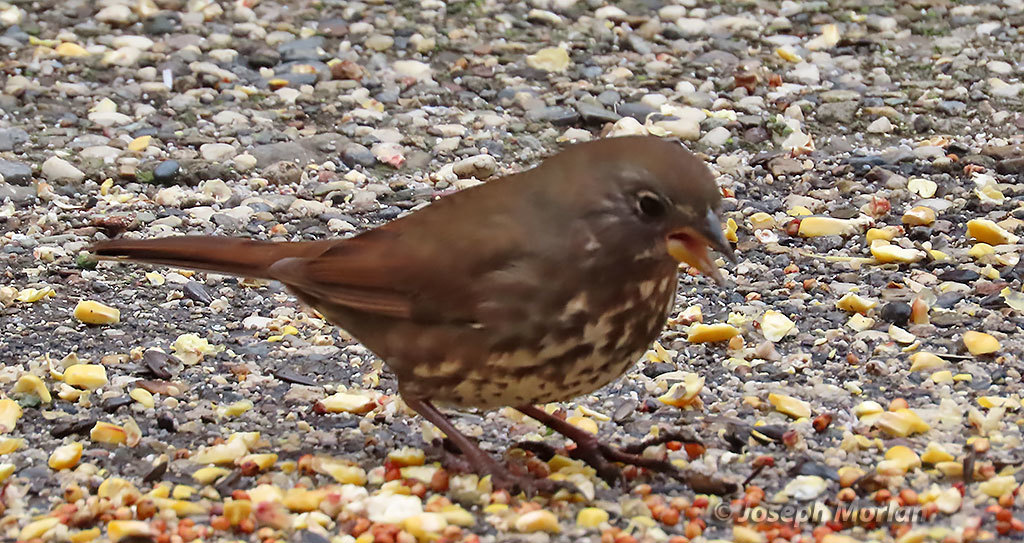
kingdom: Animalia
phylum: Chordata
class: Aves
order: Passeriformes
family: Passerellidae
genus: Passerella
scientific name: Passerella iliaca
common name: Fox sparrow
